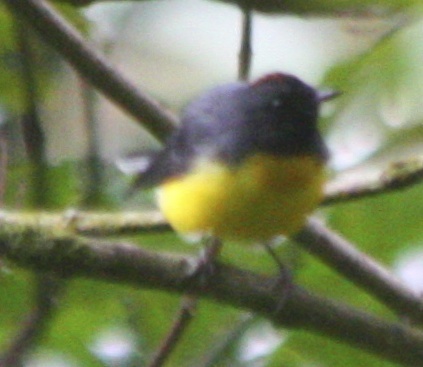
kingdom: Animalia
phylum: Chordata
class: Aves
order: Passeriformes
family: Parulidae
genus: Myioborus
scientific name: Myioborus miniatus
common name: Slate-throated redstart
